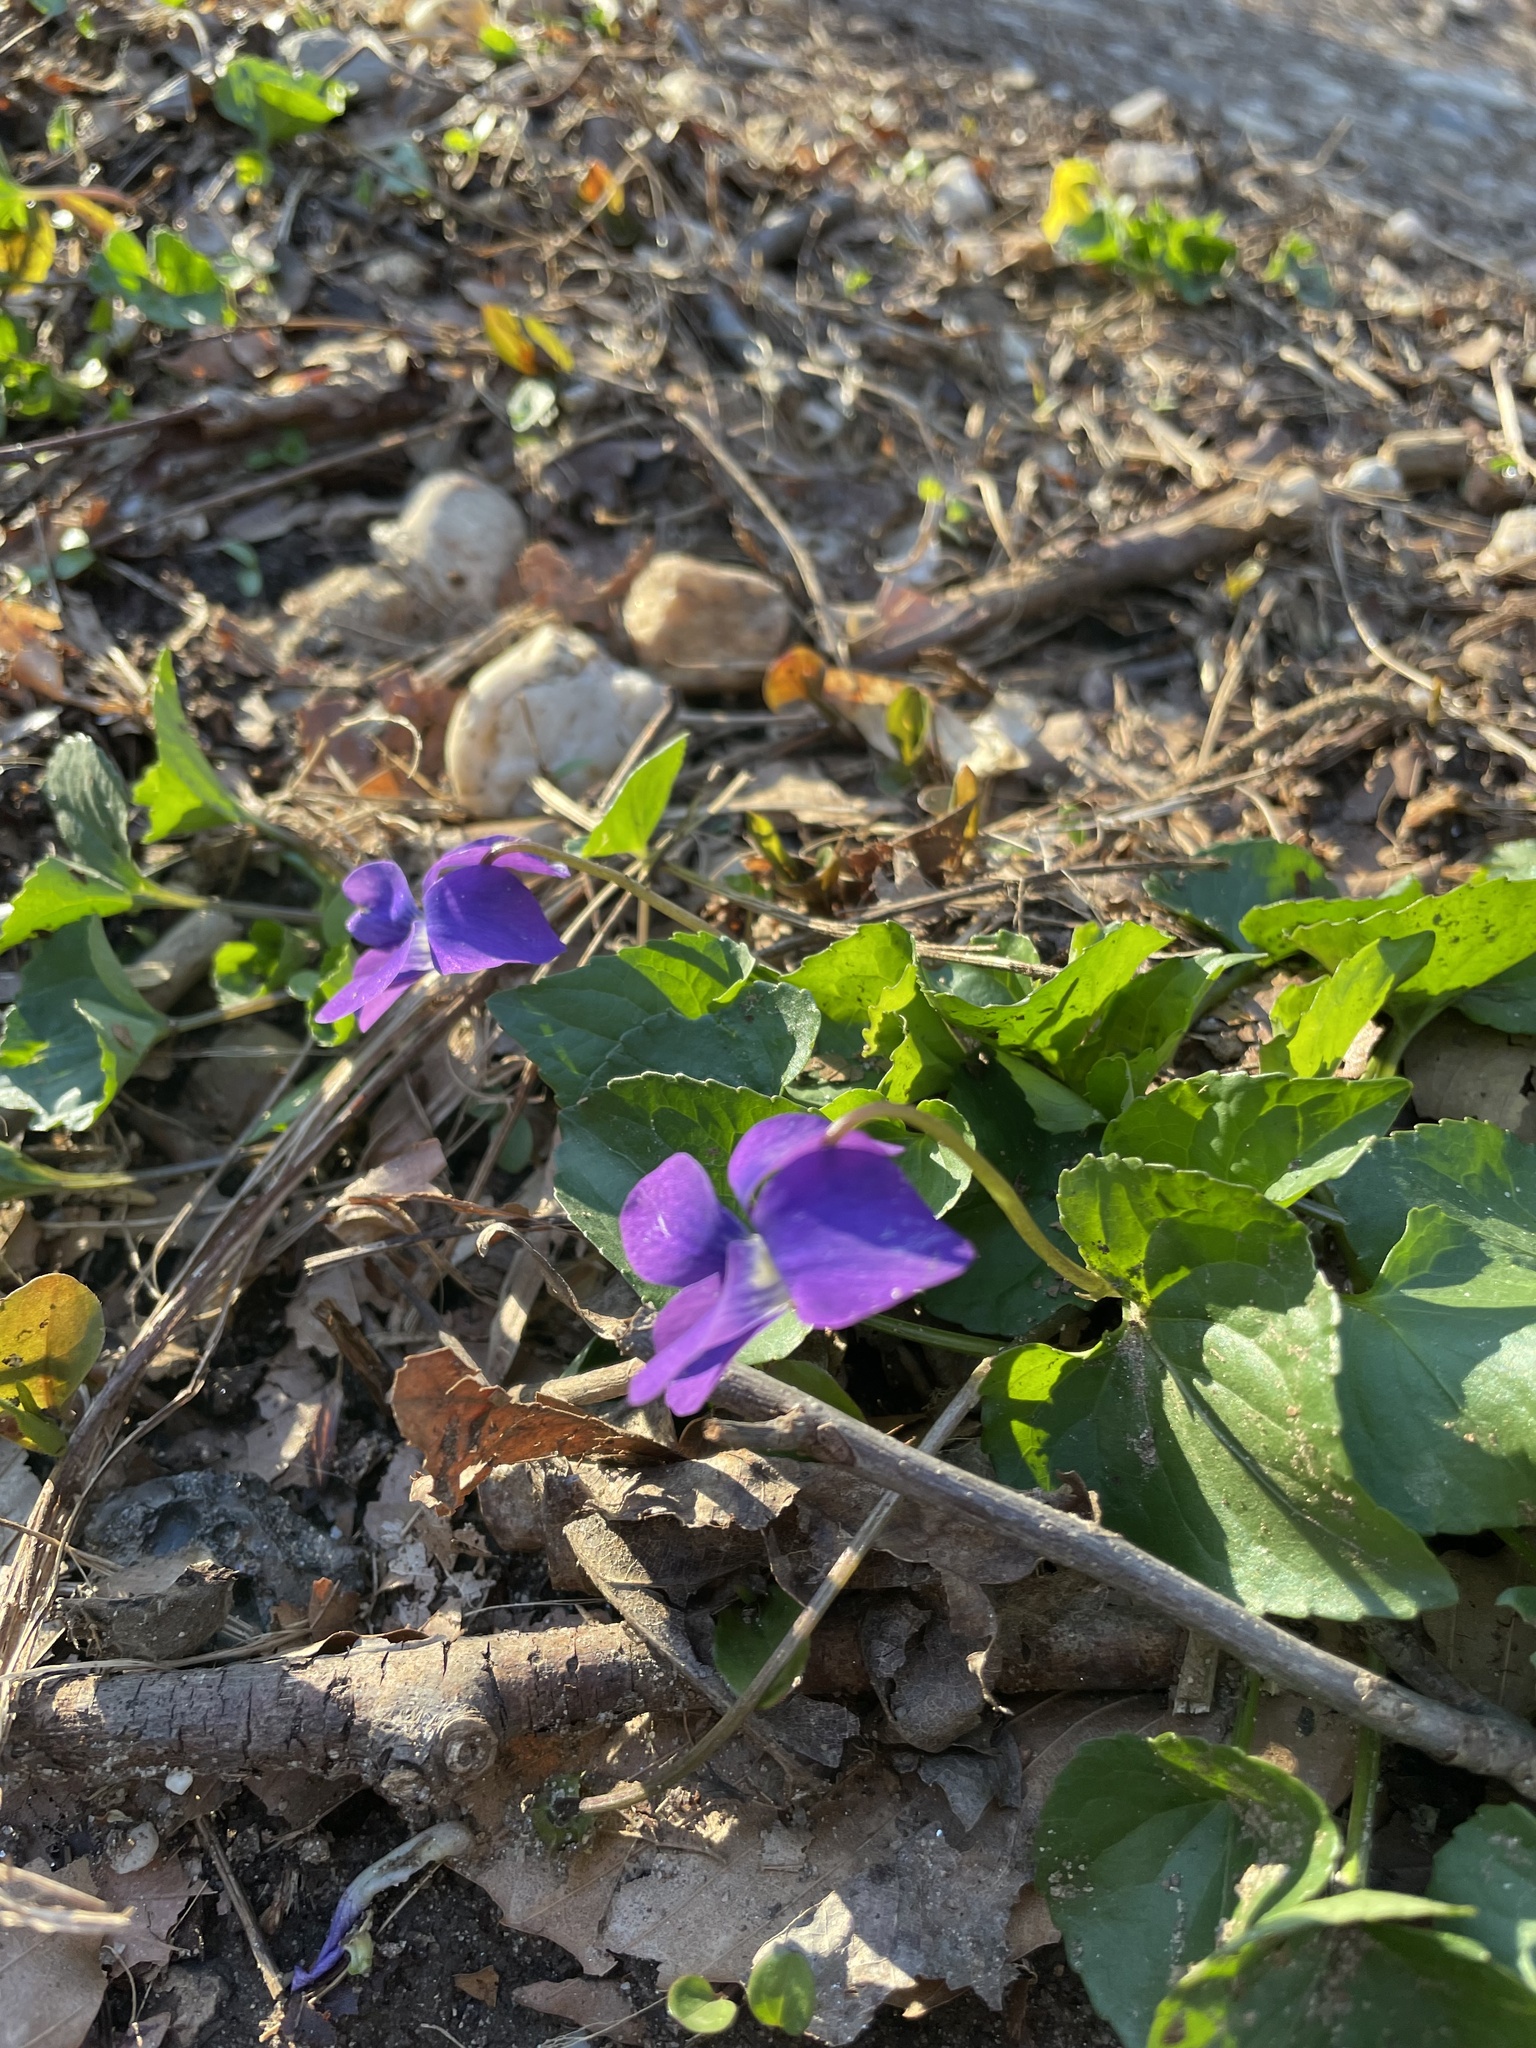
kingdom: Plantae
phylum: Tracheophyta
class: Magnoliopsida
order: Malpighiales
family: Violaceae
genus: Viola
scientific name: Viola sororia
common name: Dooryard violet
